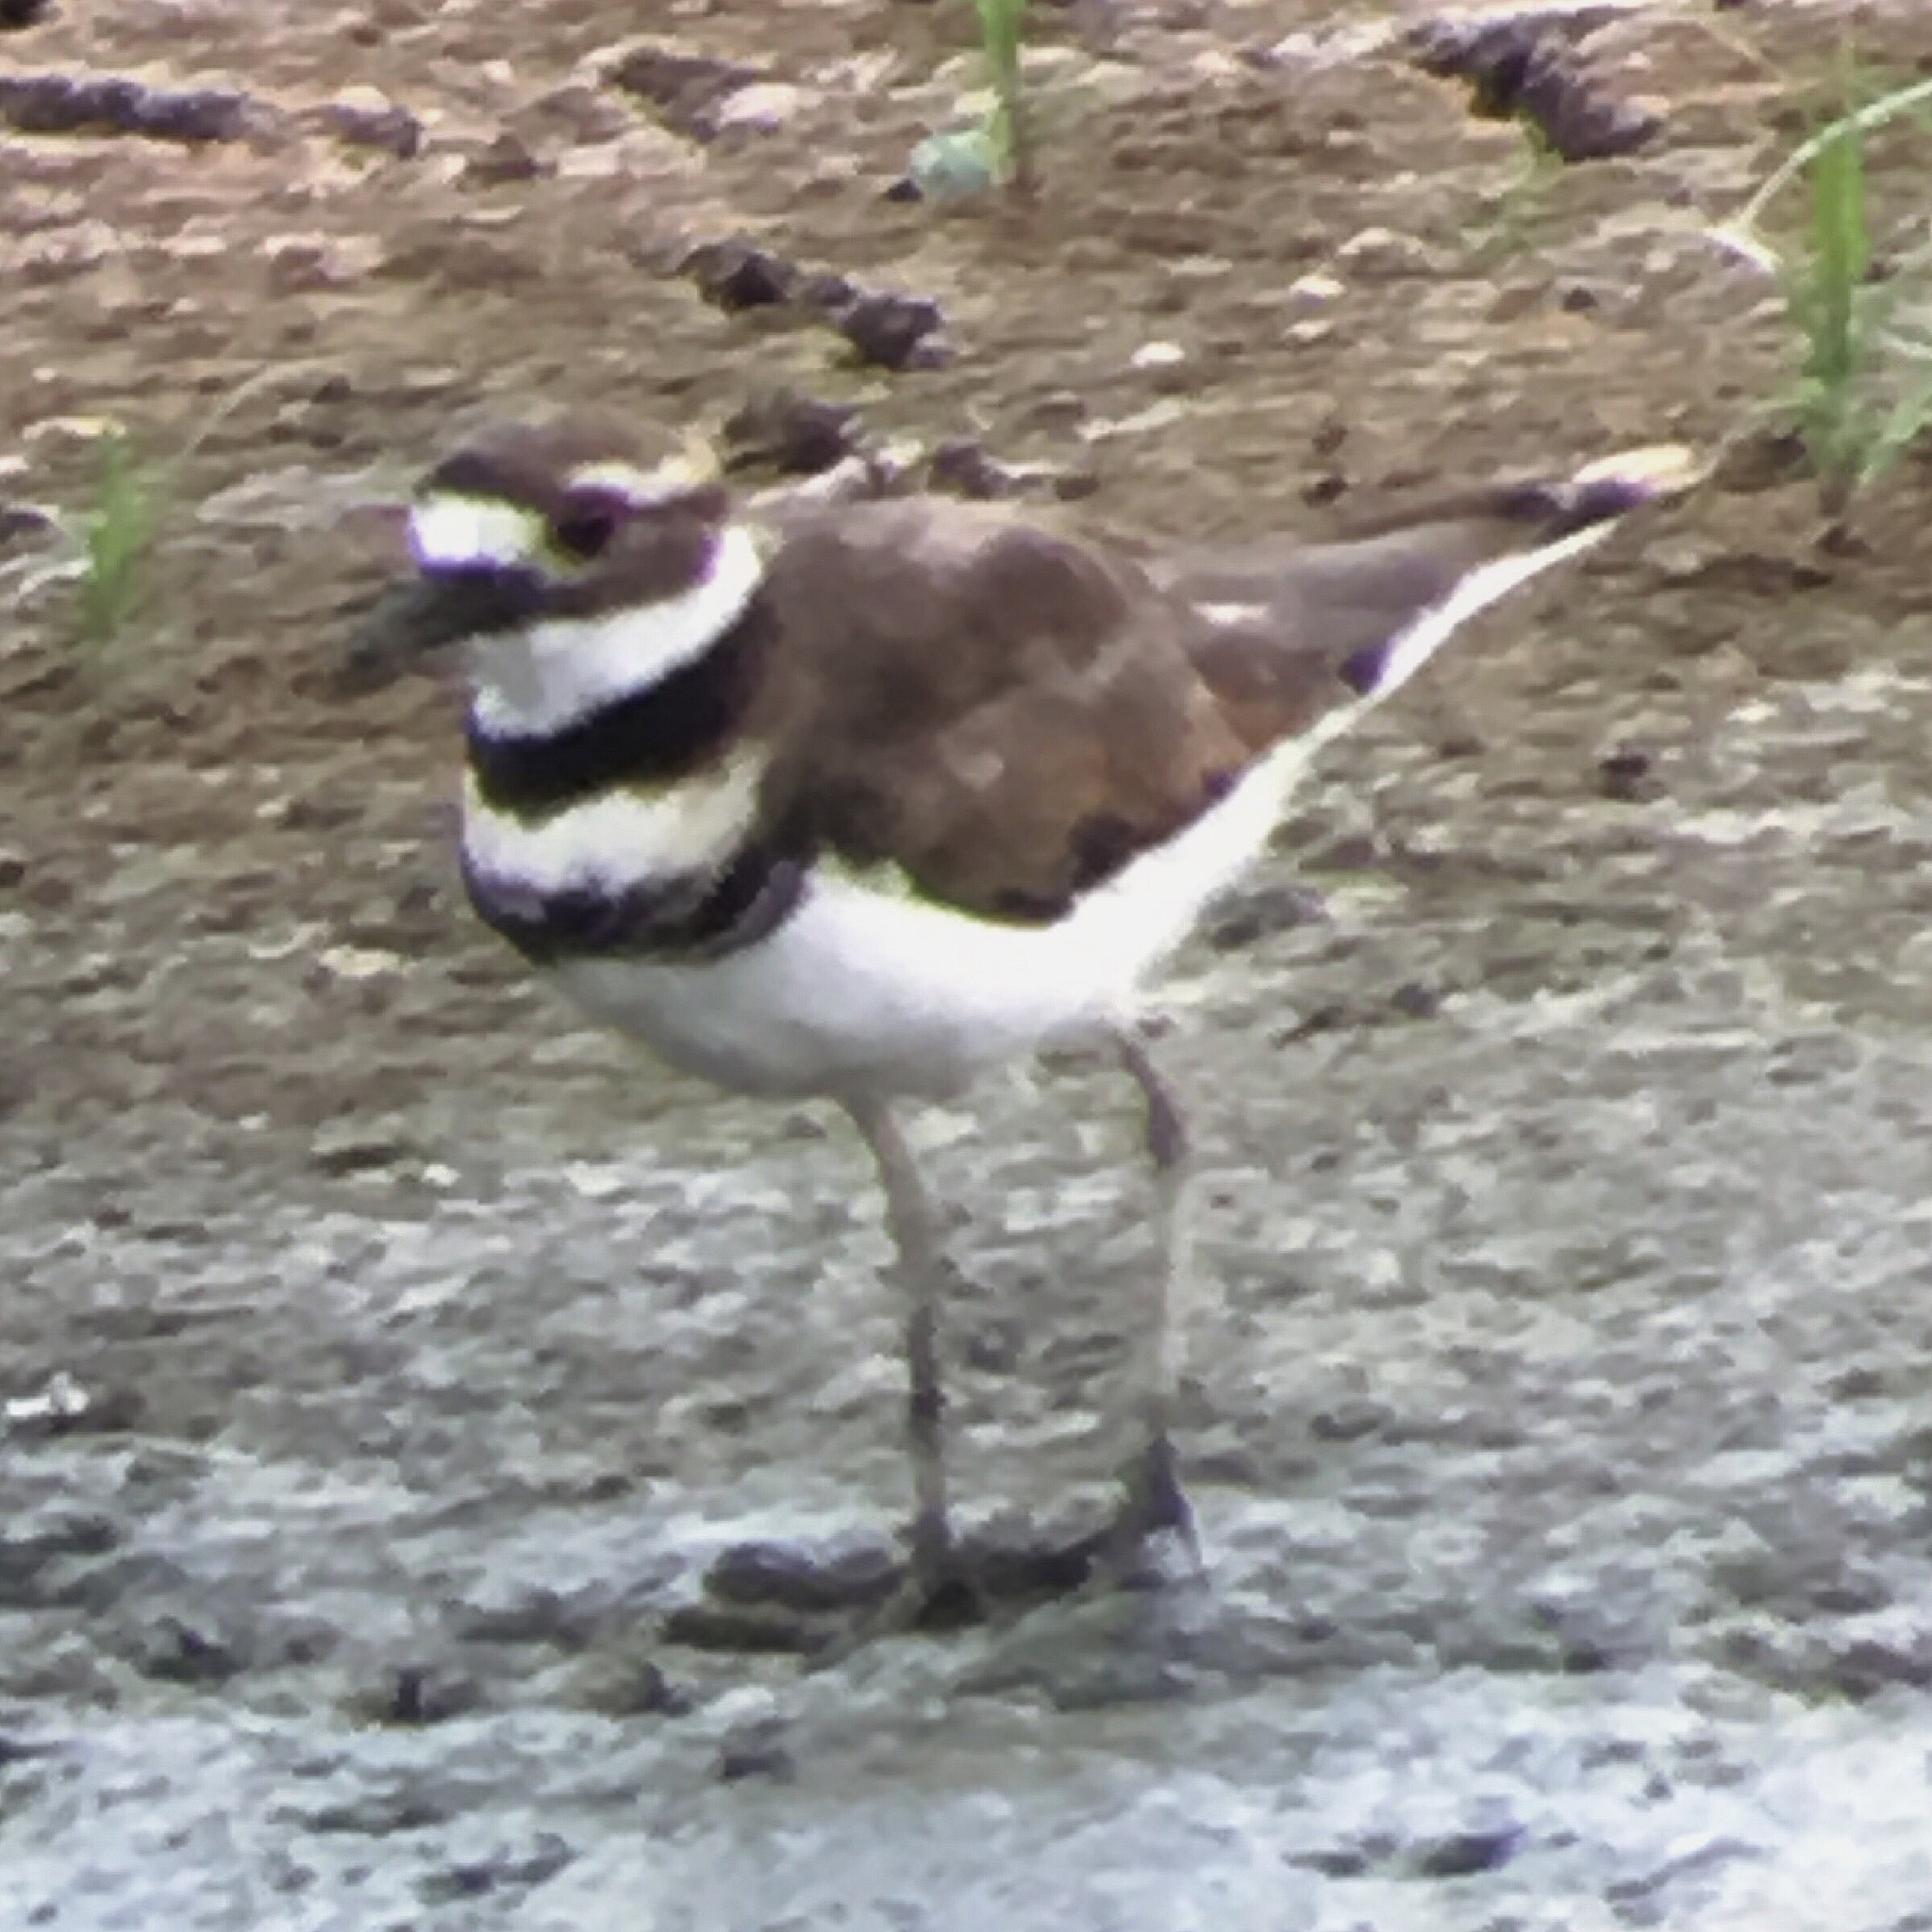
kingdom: Animalia
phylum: Chordata
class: Aves
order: Charadriiformes
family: Charadriidae
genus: Charadrius
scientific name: Charadrius vociferus
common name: Killdeer
